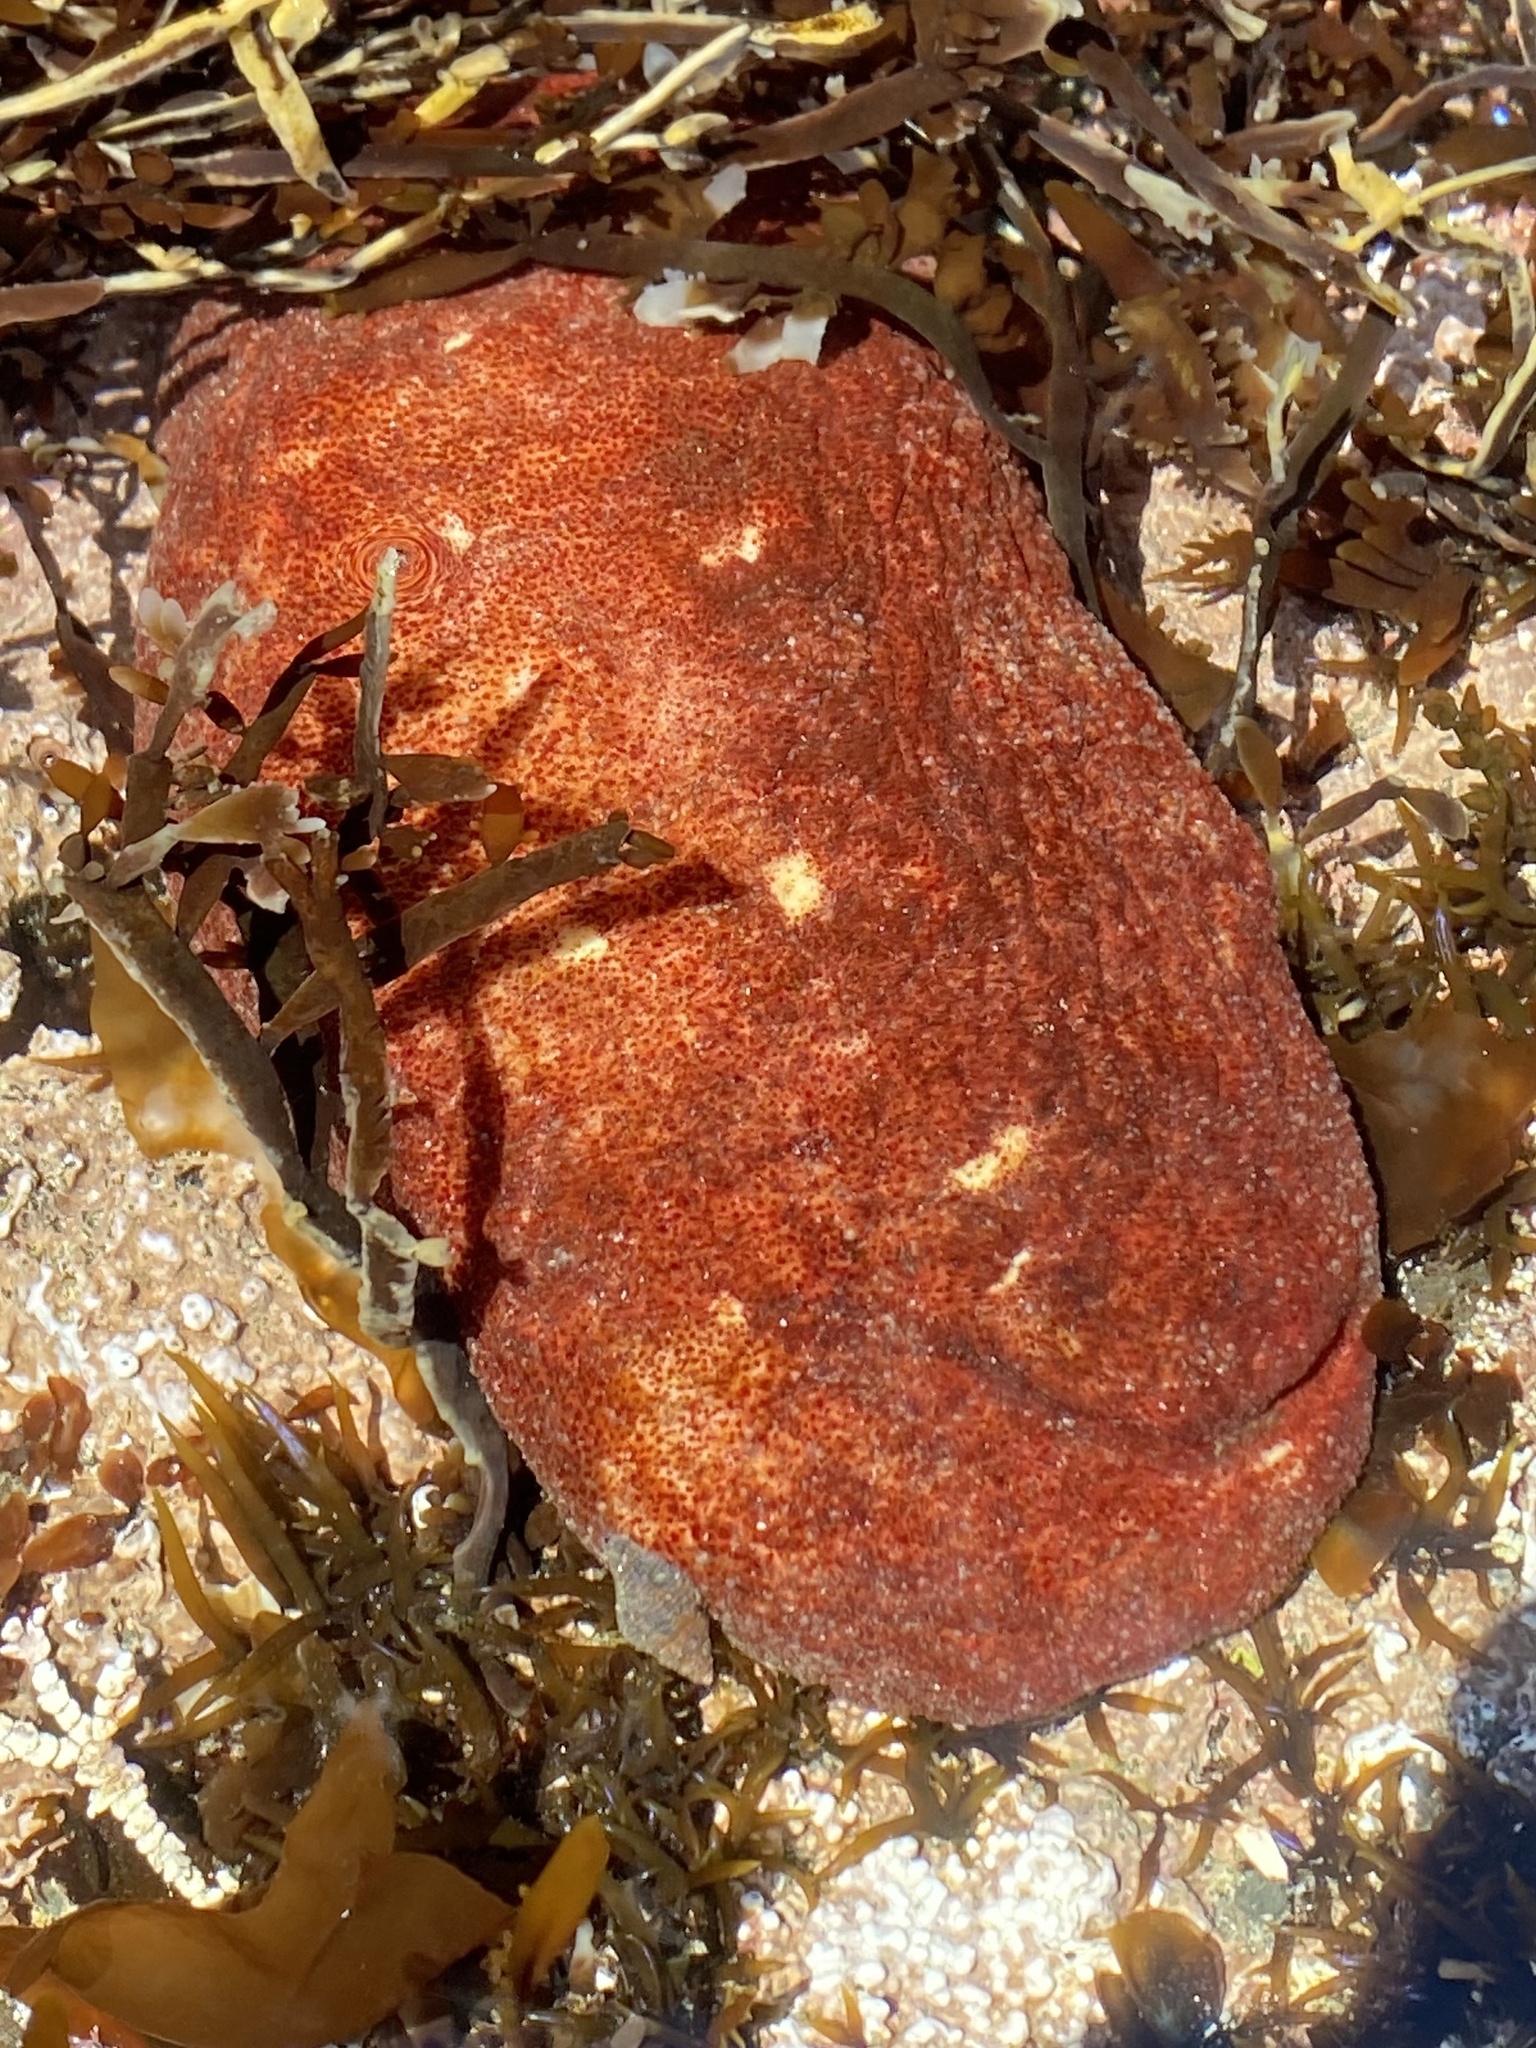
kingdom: Animalia
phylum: Mollusca
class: Polyplacophora
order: Chitonida
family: Acanthochitonidae
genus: Cryptochiton
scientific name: Cryptochiton stelleri
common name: Giant pacific chiton
